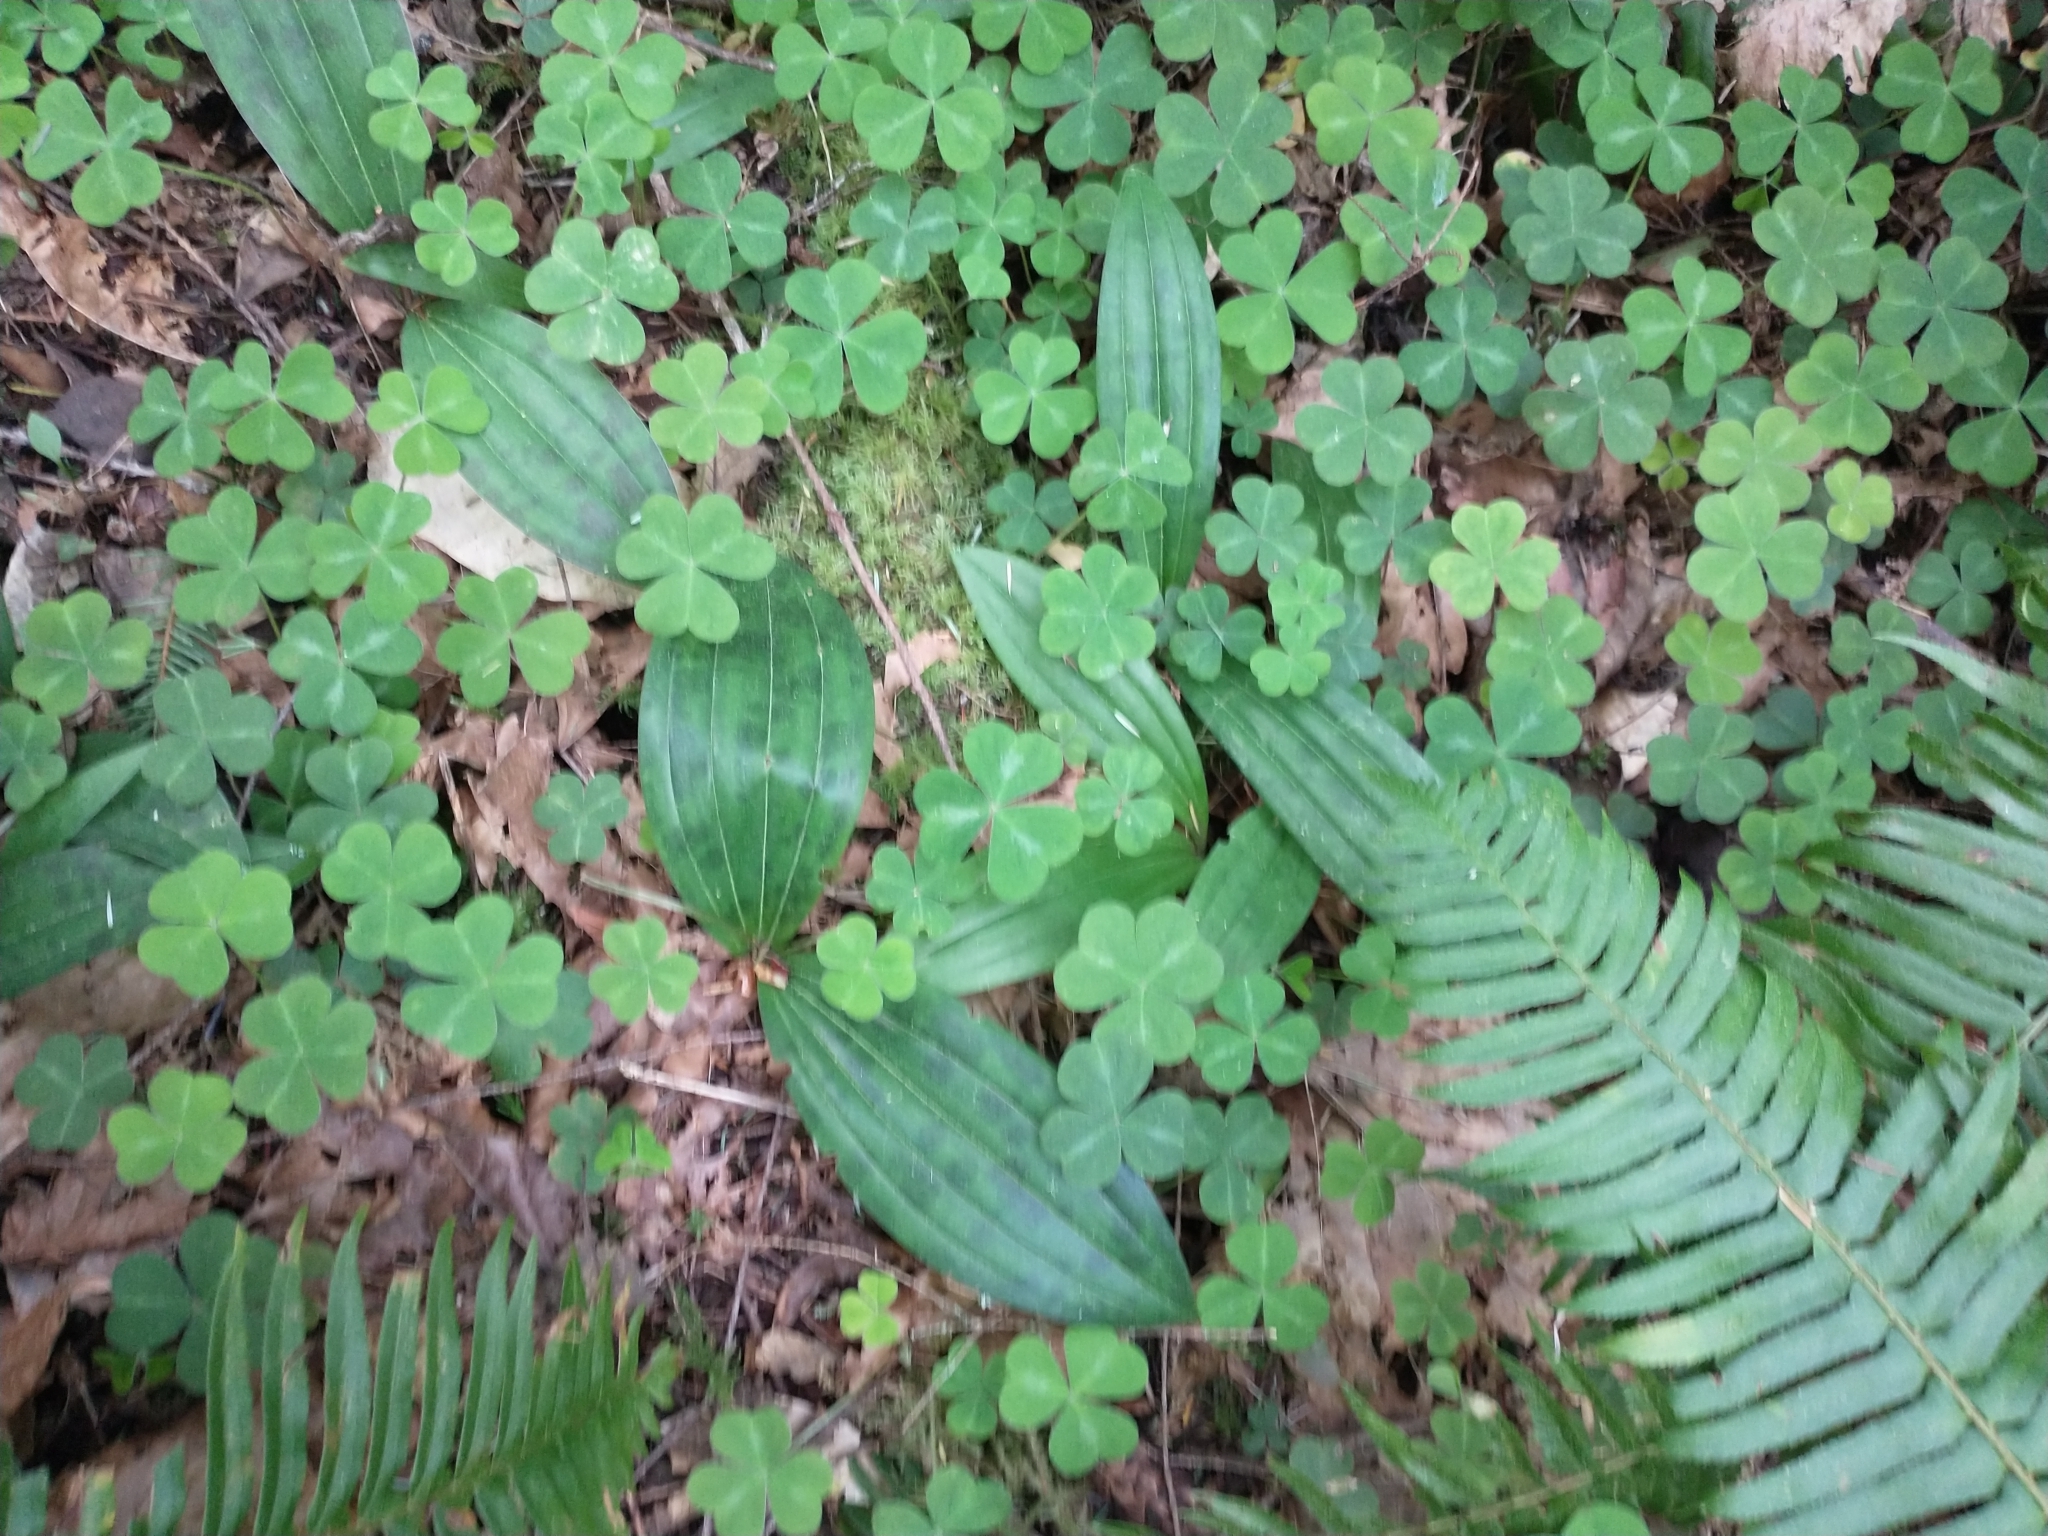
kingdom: Plantae
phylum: Tracheophyta
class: Liliopsida
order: Liliales
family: Liliaceae
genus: Scoliopus
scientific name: Scoliopus bigelovii
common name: Foetid adder's-tongue
